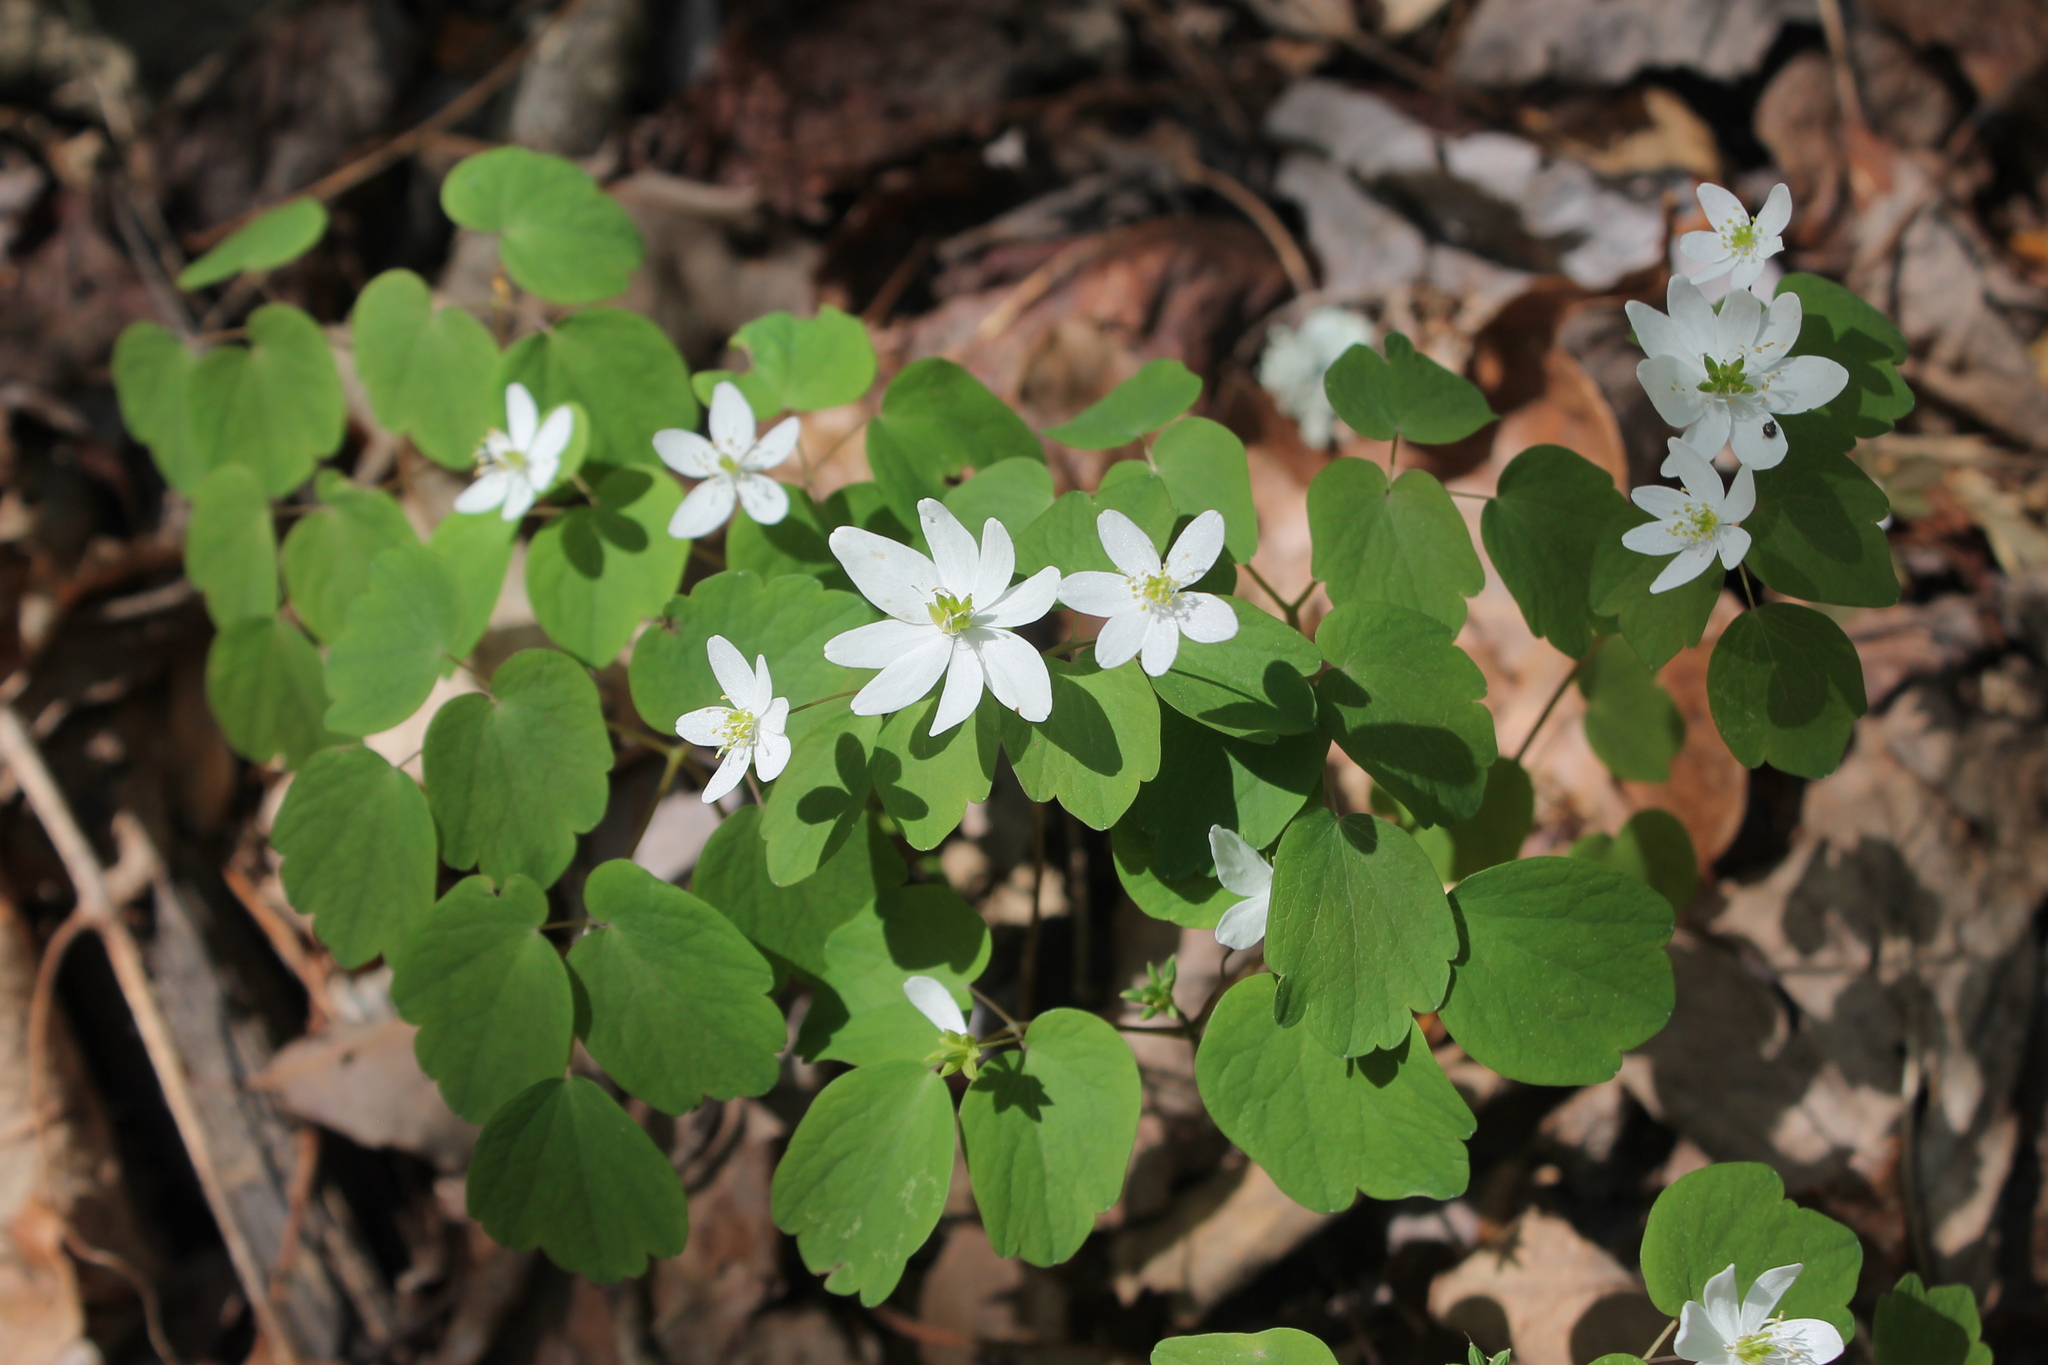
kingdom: Plantae
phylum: Tracheophyta
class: Magnoliopsida
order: Ranunculales
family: Ranunculaceae
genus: Thalictrum
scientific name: Thalictrum thalictroides
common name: Rue-anemone
